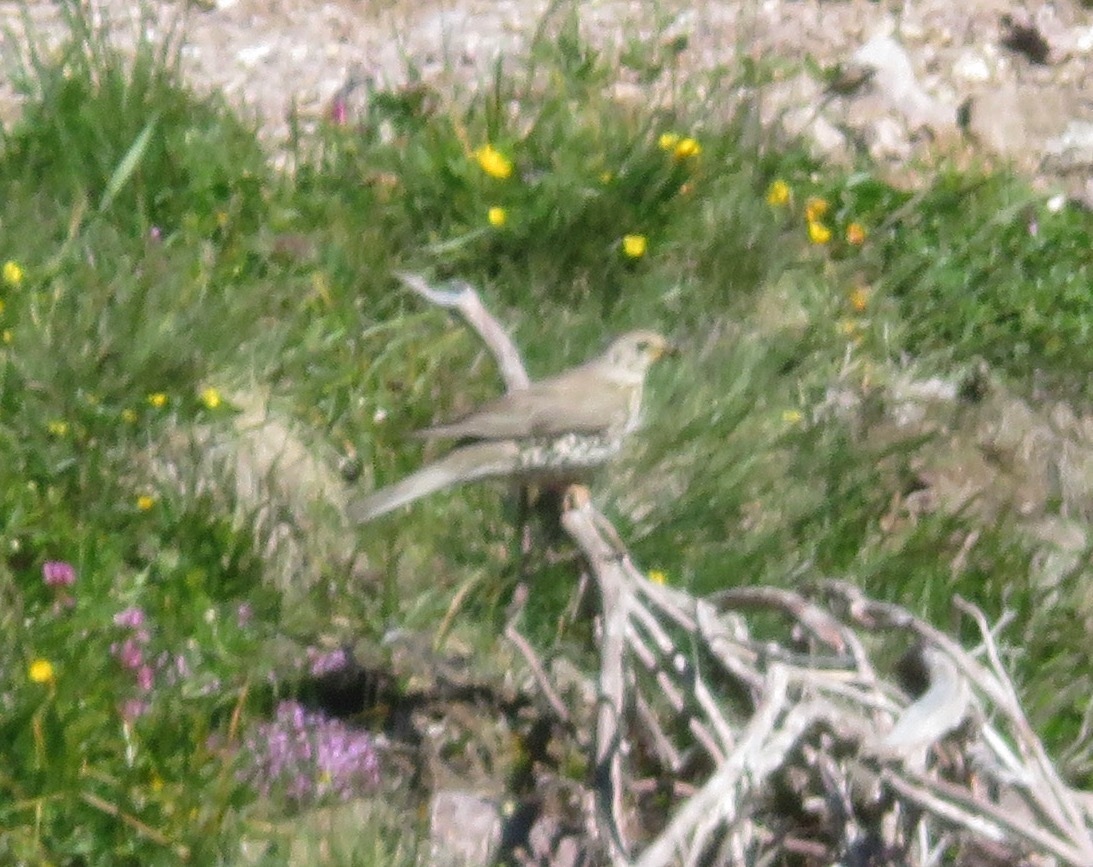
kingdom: Animalia
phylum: Chordata
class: Aves
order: Passeriformes
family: Turdidae
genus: Turdus
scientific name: Turdus viscivorus
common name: Mistle thrush
